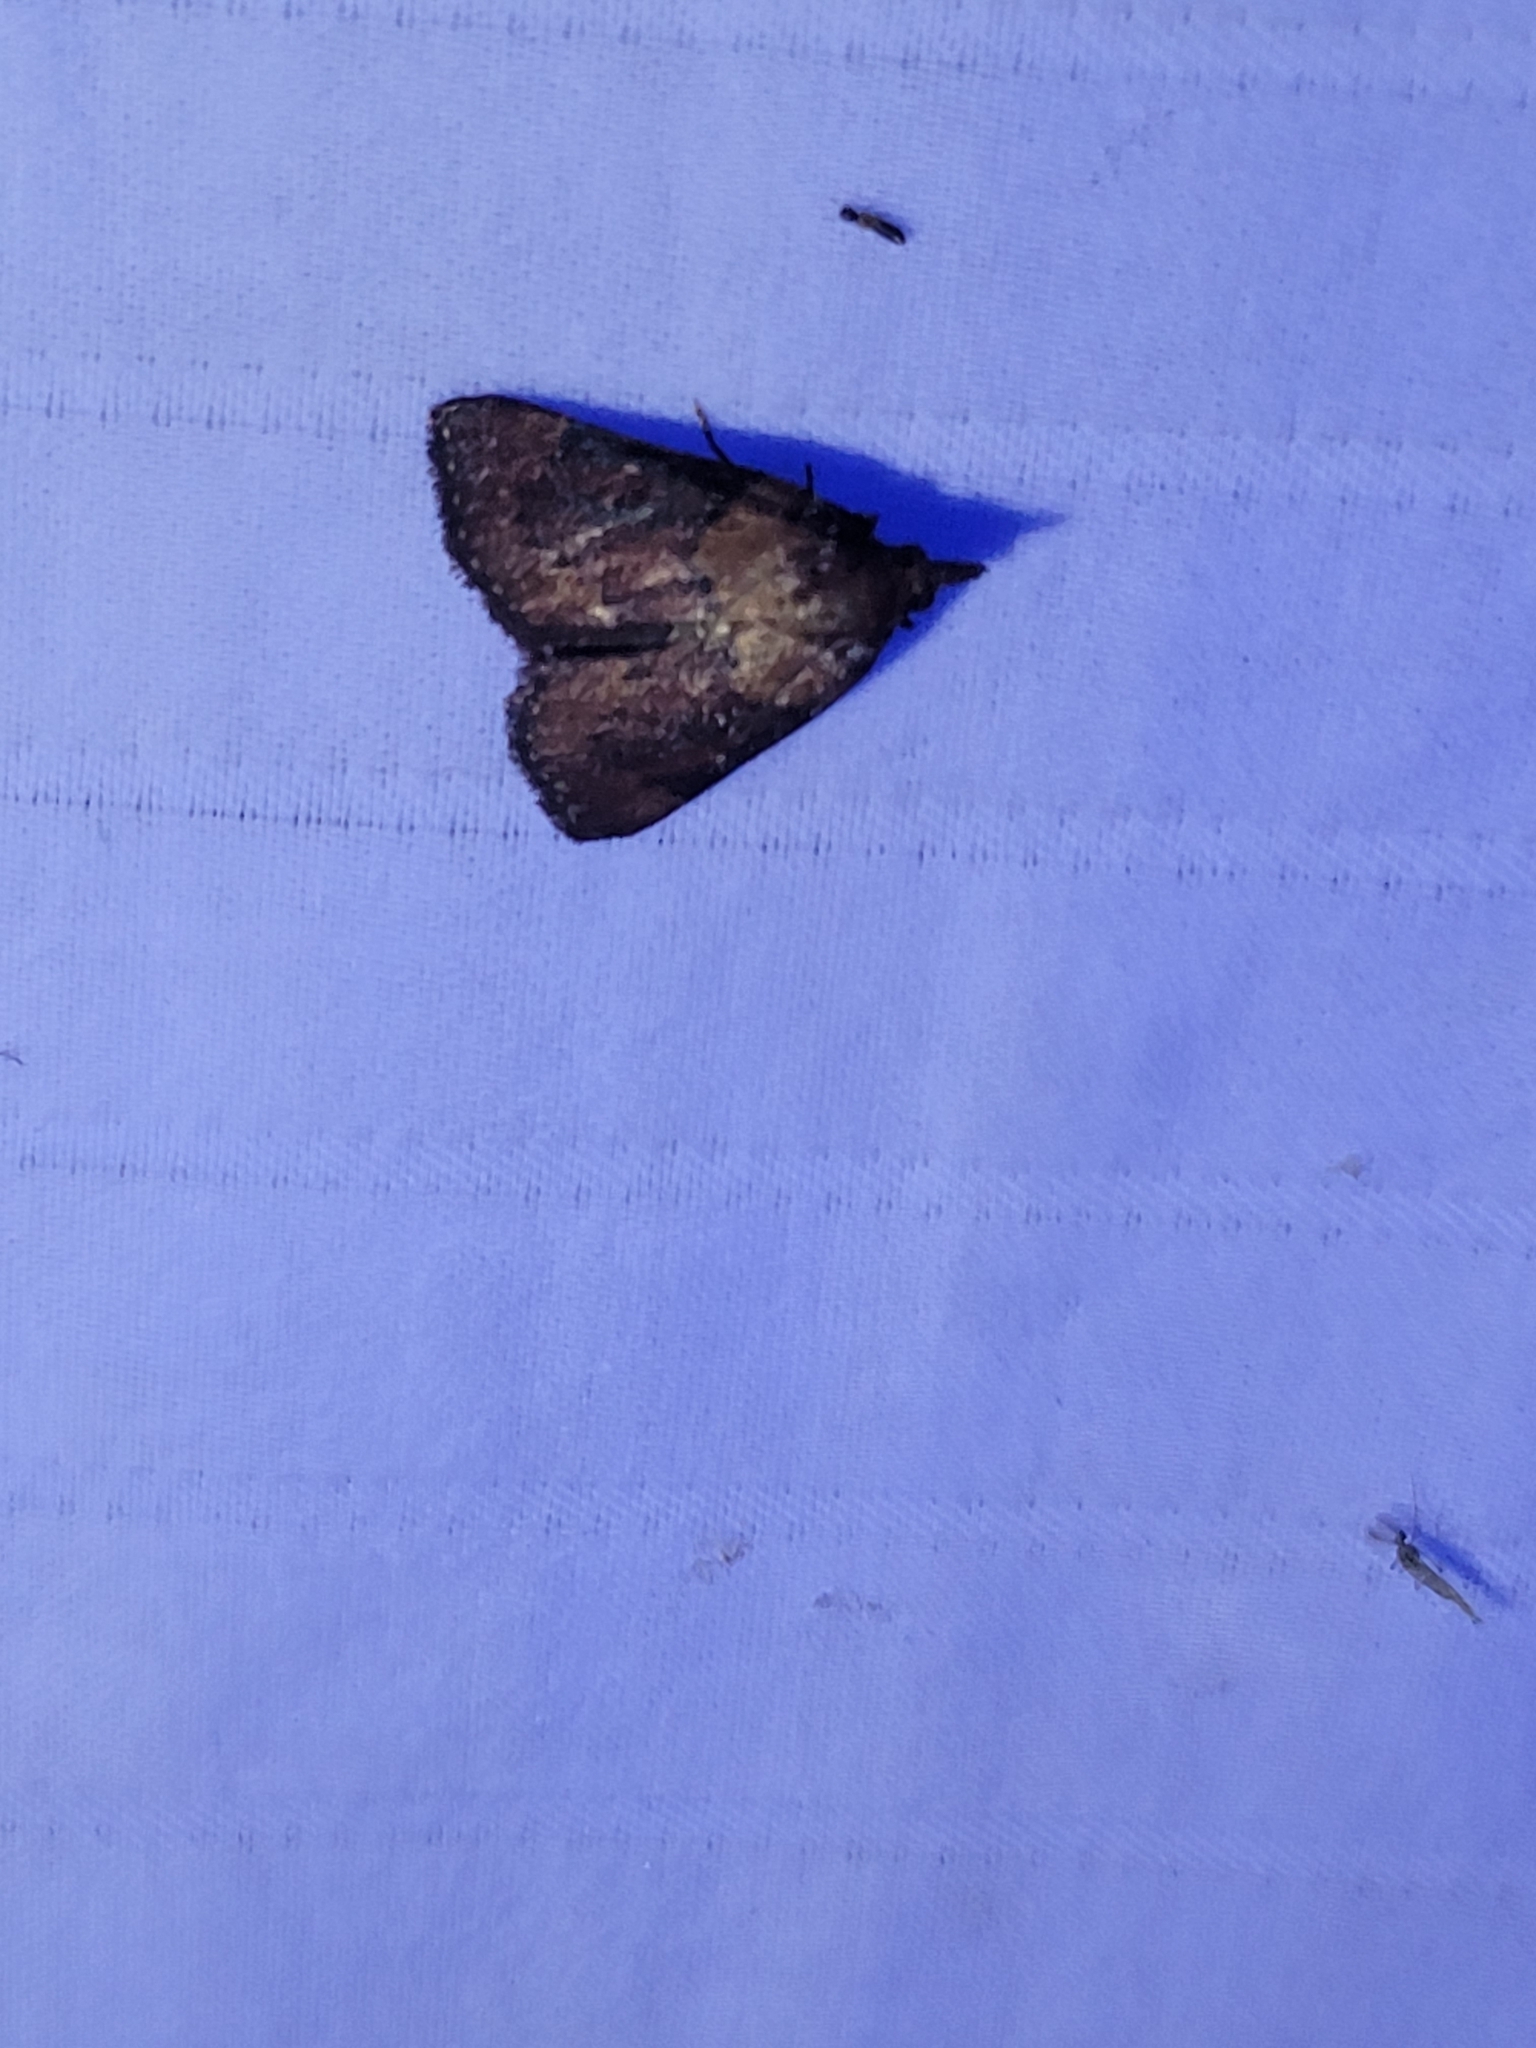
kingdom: Animalia
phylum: Arthropoda
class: Insecta
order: Lepidoptera
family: Pyralidae
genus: Omphalocera
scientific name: Omphalocera munroei
